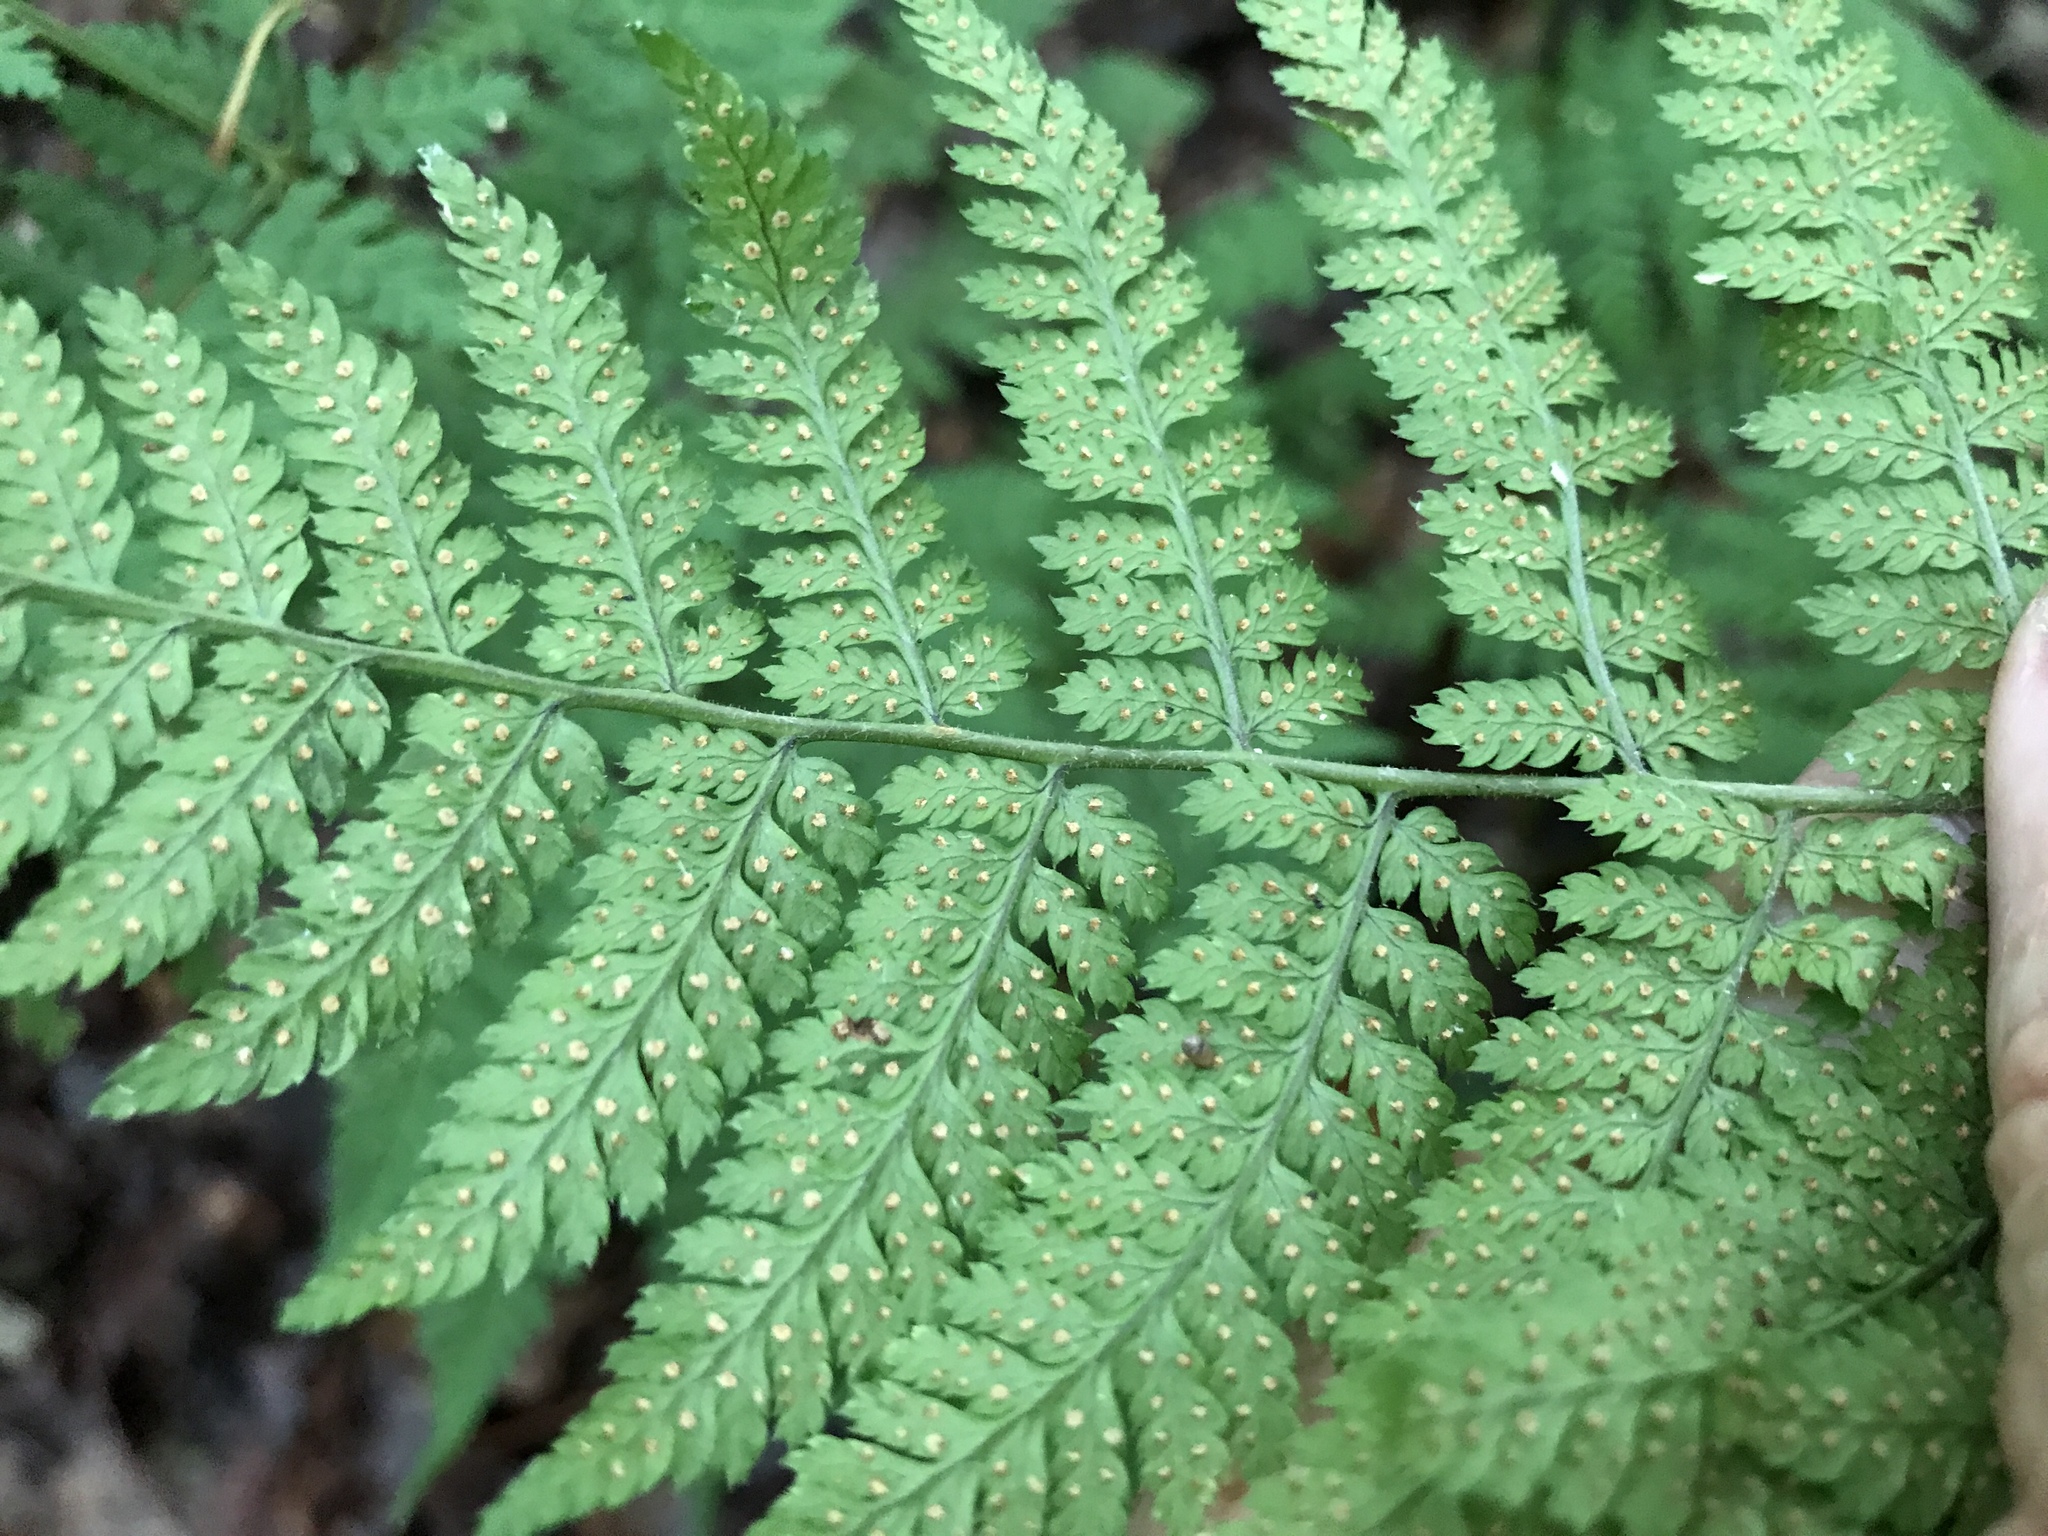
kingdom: Plantae
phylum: Tracheophyta
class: Polypodiopsida
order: Polypodiales
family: Dryopteridaceae
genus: Dryopteris
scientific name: Dryopteris intermedia
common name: Evergreen wood fern
